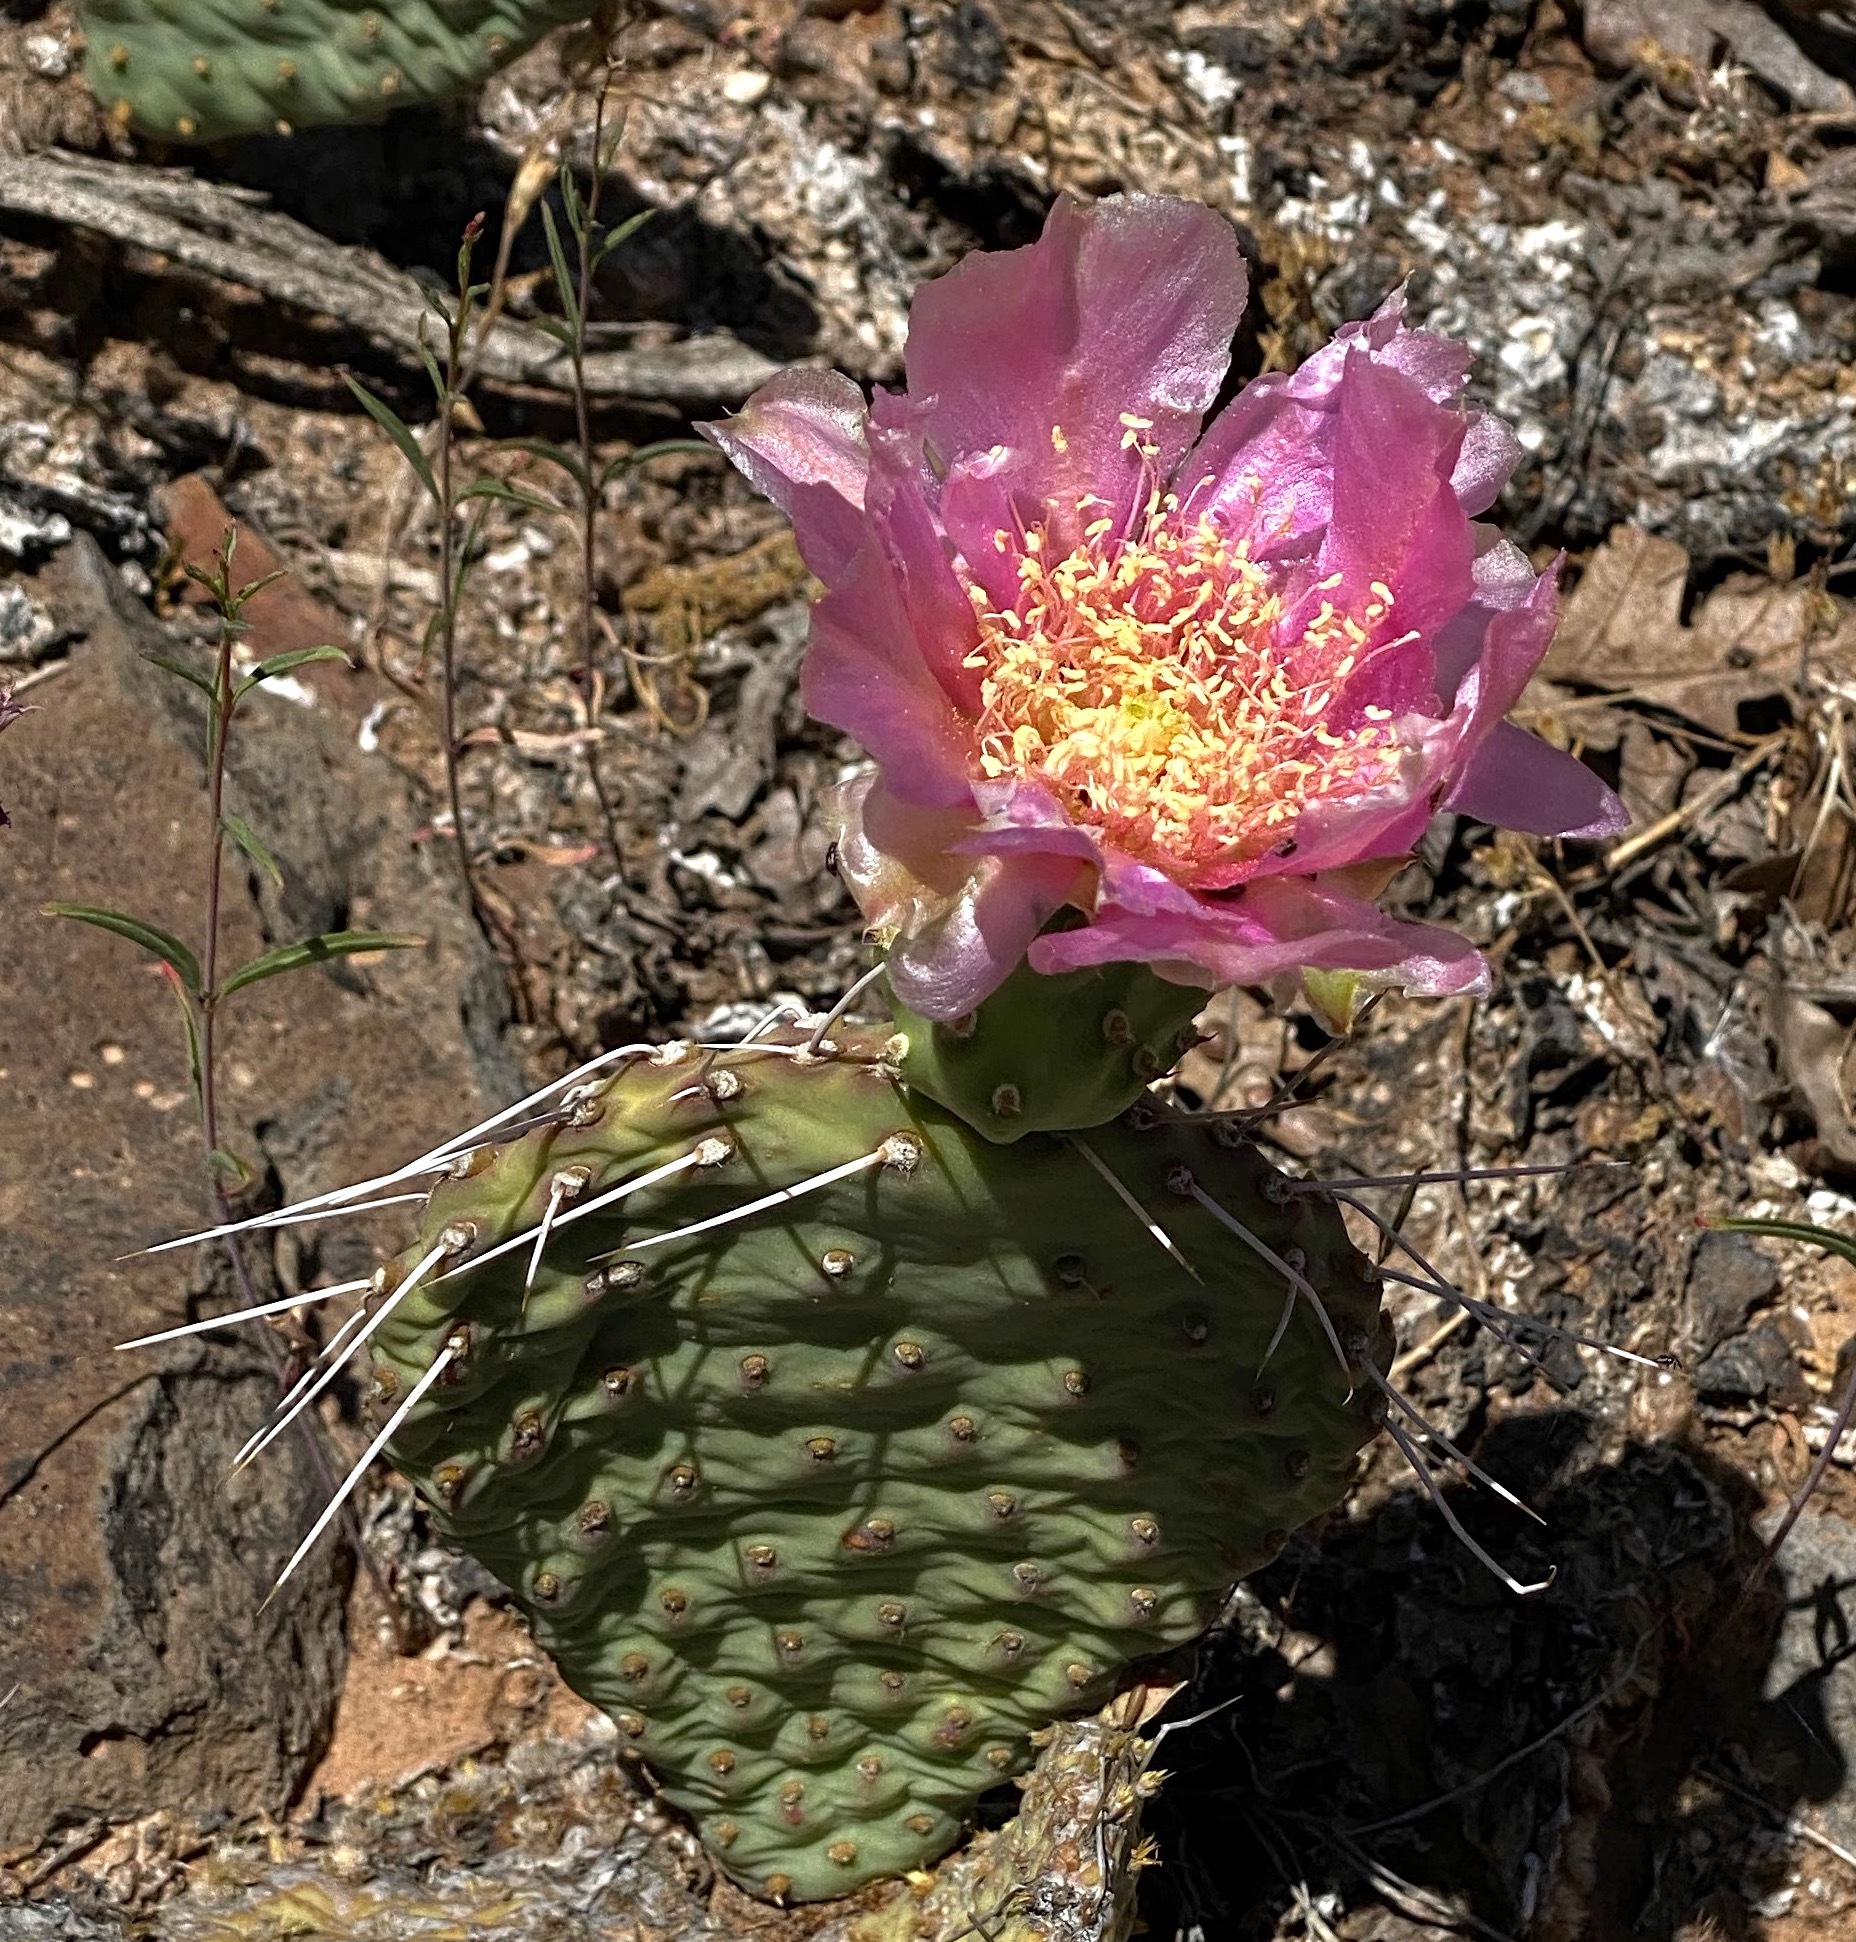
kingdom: Plantae
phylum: Tracheophyta
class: Magnoliopsida
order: Caryophyllales
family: Cactaceae
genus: Opuntia
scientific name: Opuntia aurea
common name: Golden prickly-pear
